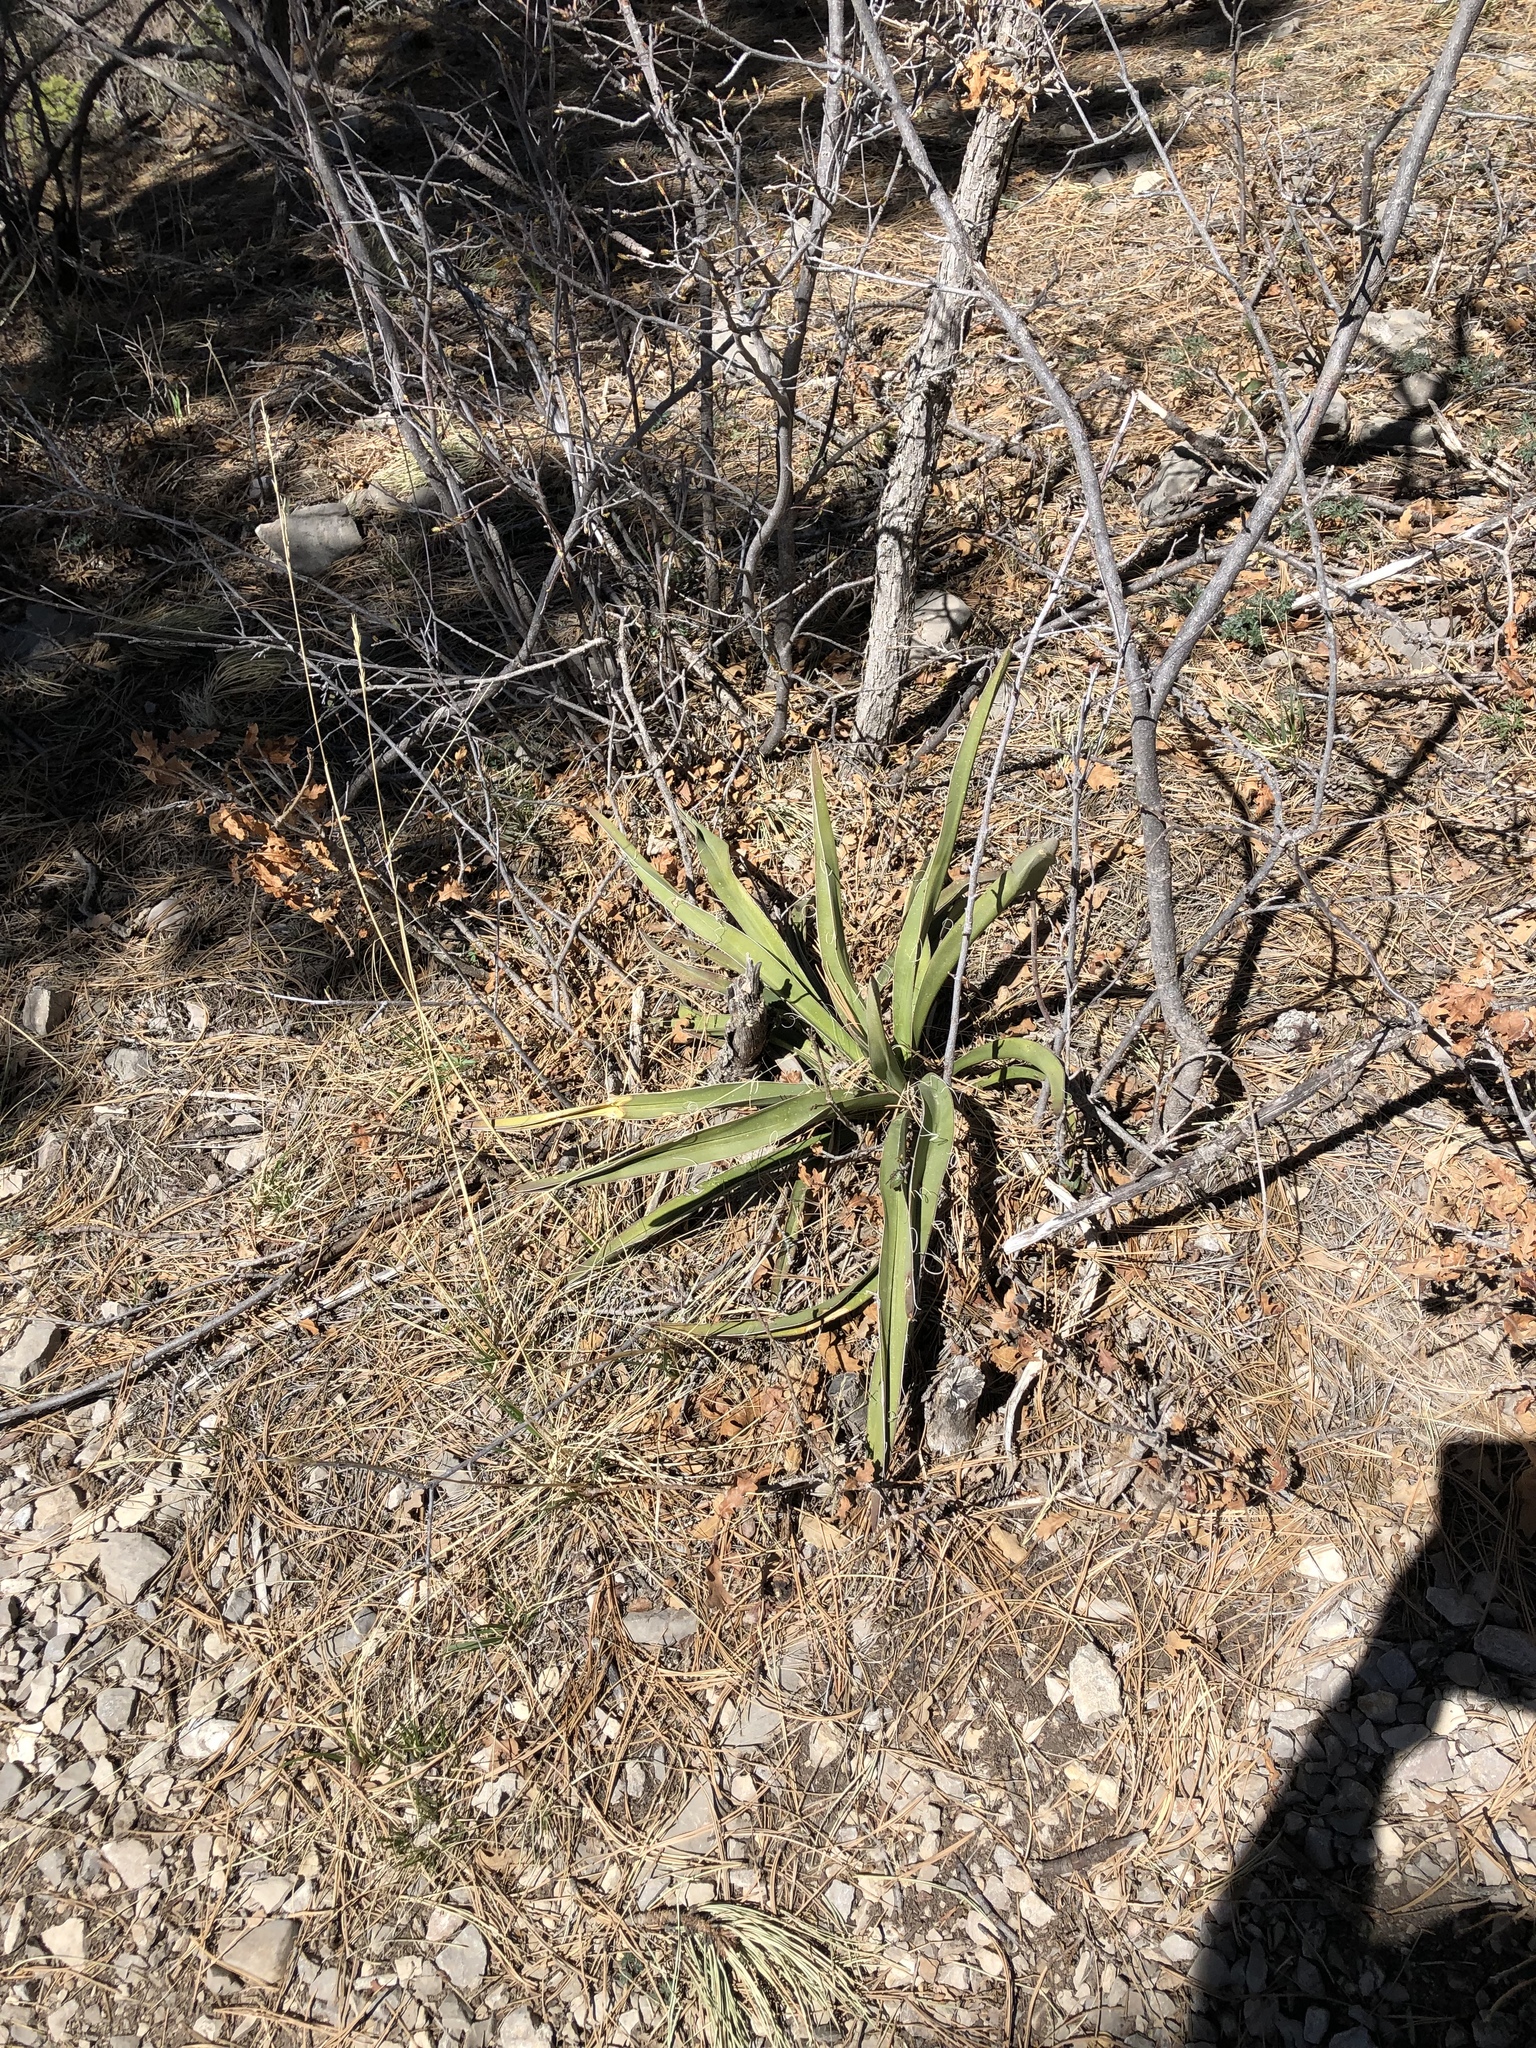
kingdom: Plantae
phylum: Tracheophyta
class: Liliopsida
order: Asparagales
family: Asparagaceae
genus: Yucca
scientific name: Yucca baccata
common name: Banana yucca
